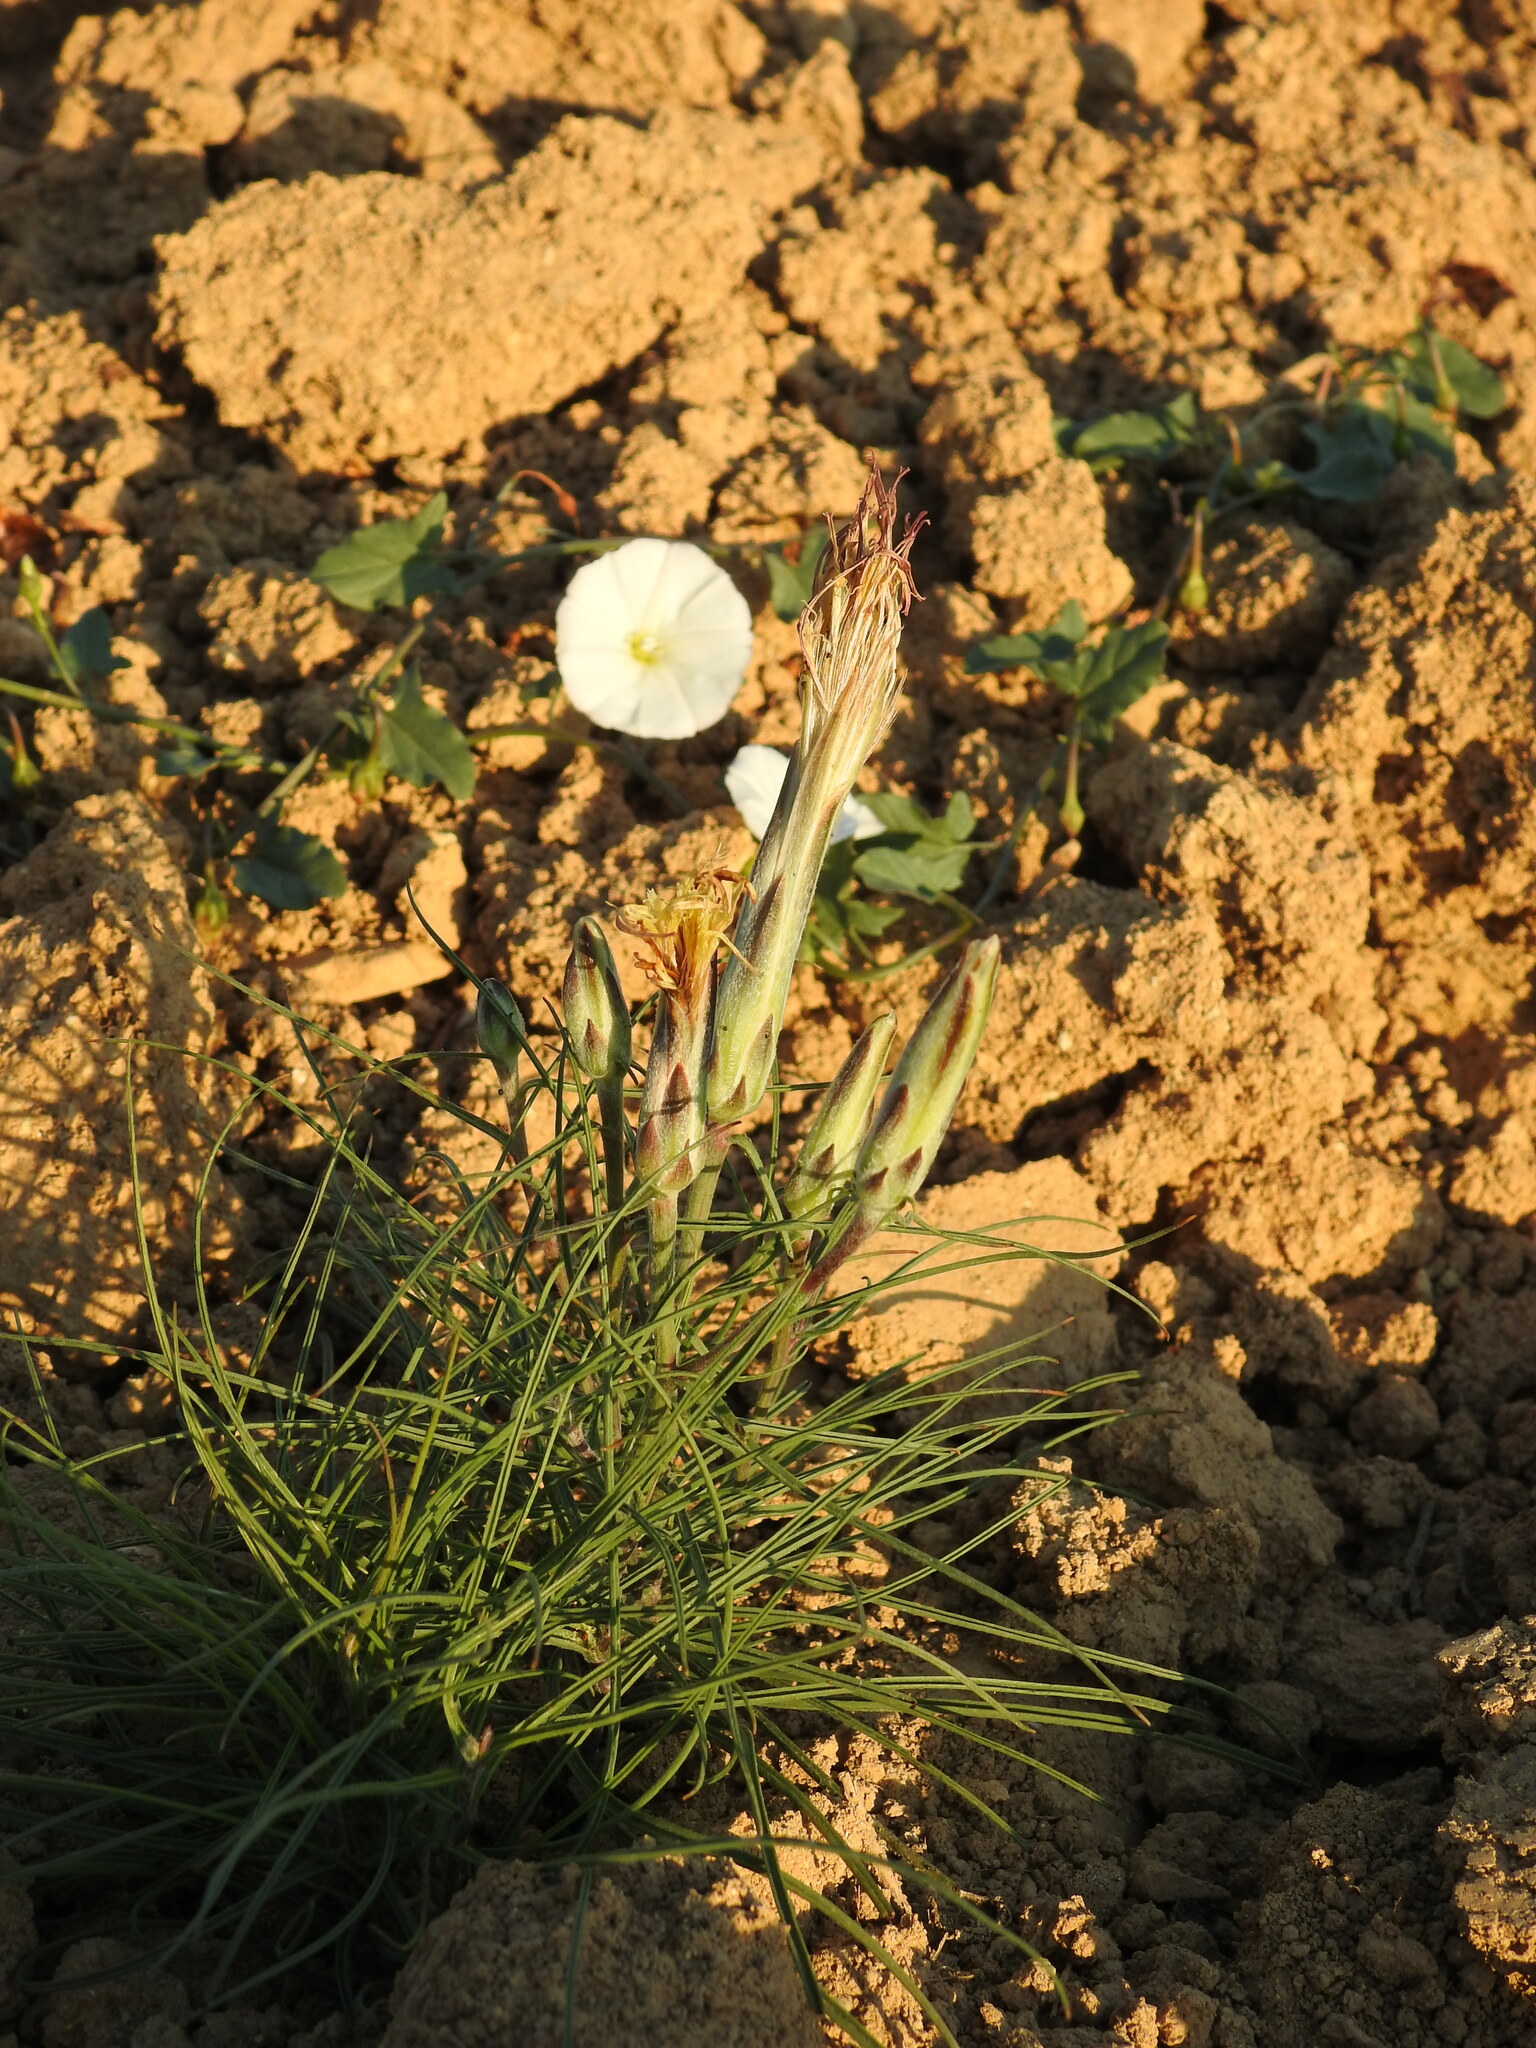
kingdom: Plantae
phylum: Tracheophyta
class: Magnoliopsida
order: Asterales
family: Asteraceae
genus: Scorzonera
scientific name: Scorzonera angustifolia
